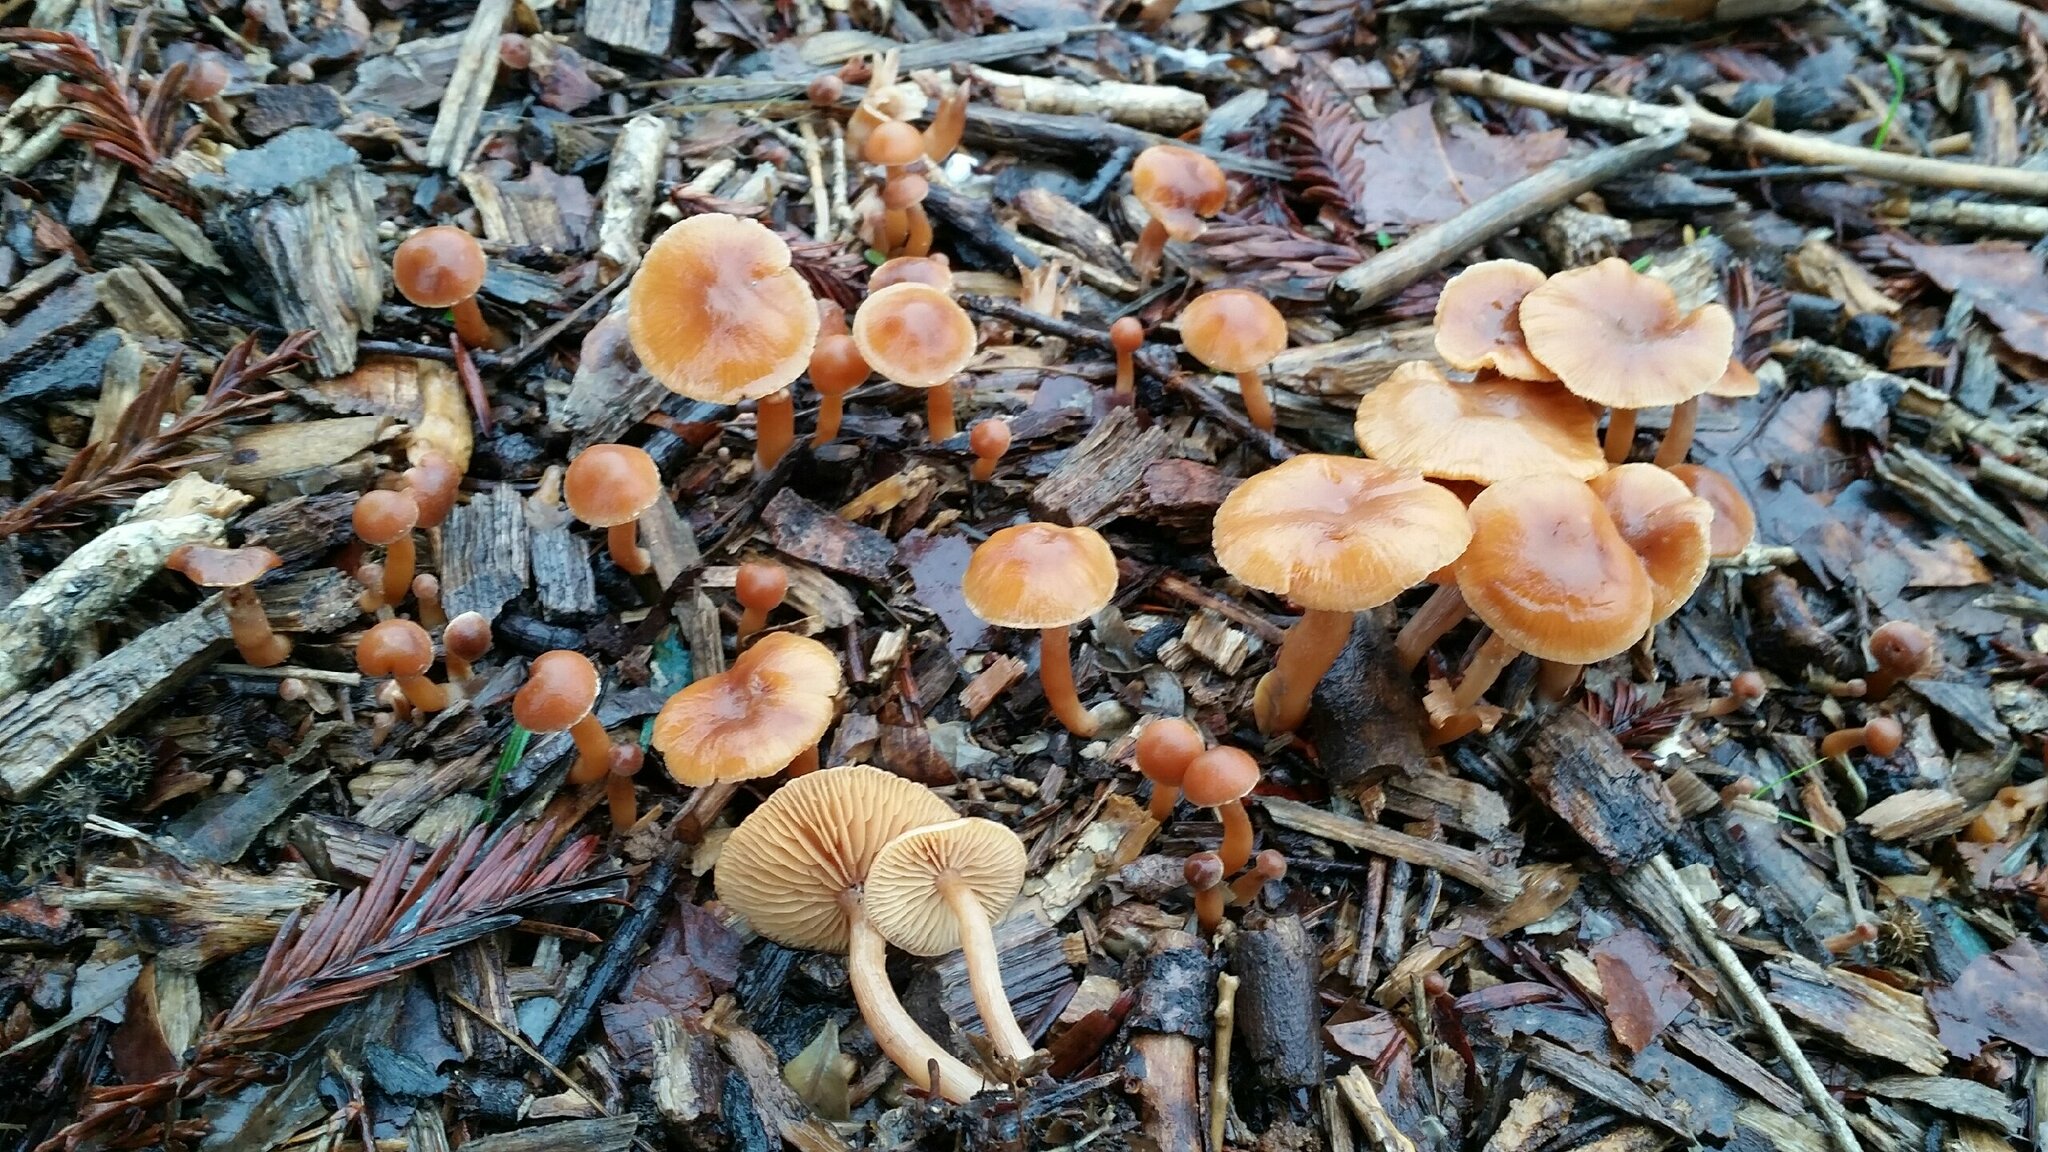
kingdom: Fungi
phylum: Basidiomycota
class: Agaricomycetes
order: Agaricales
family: Tubariaceae
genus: Tubaria
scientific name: Tubaria furfuracea
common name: Scurfy twiglet
